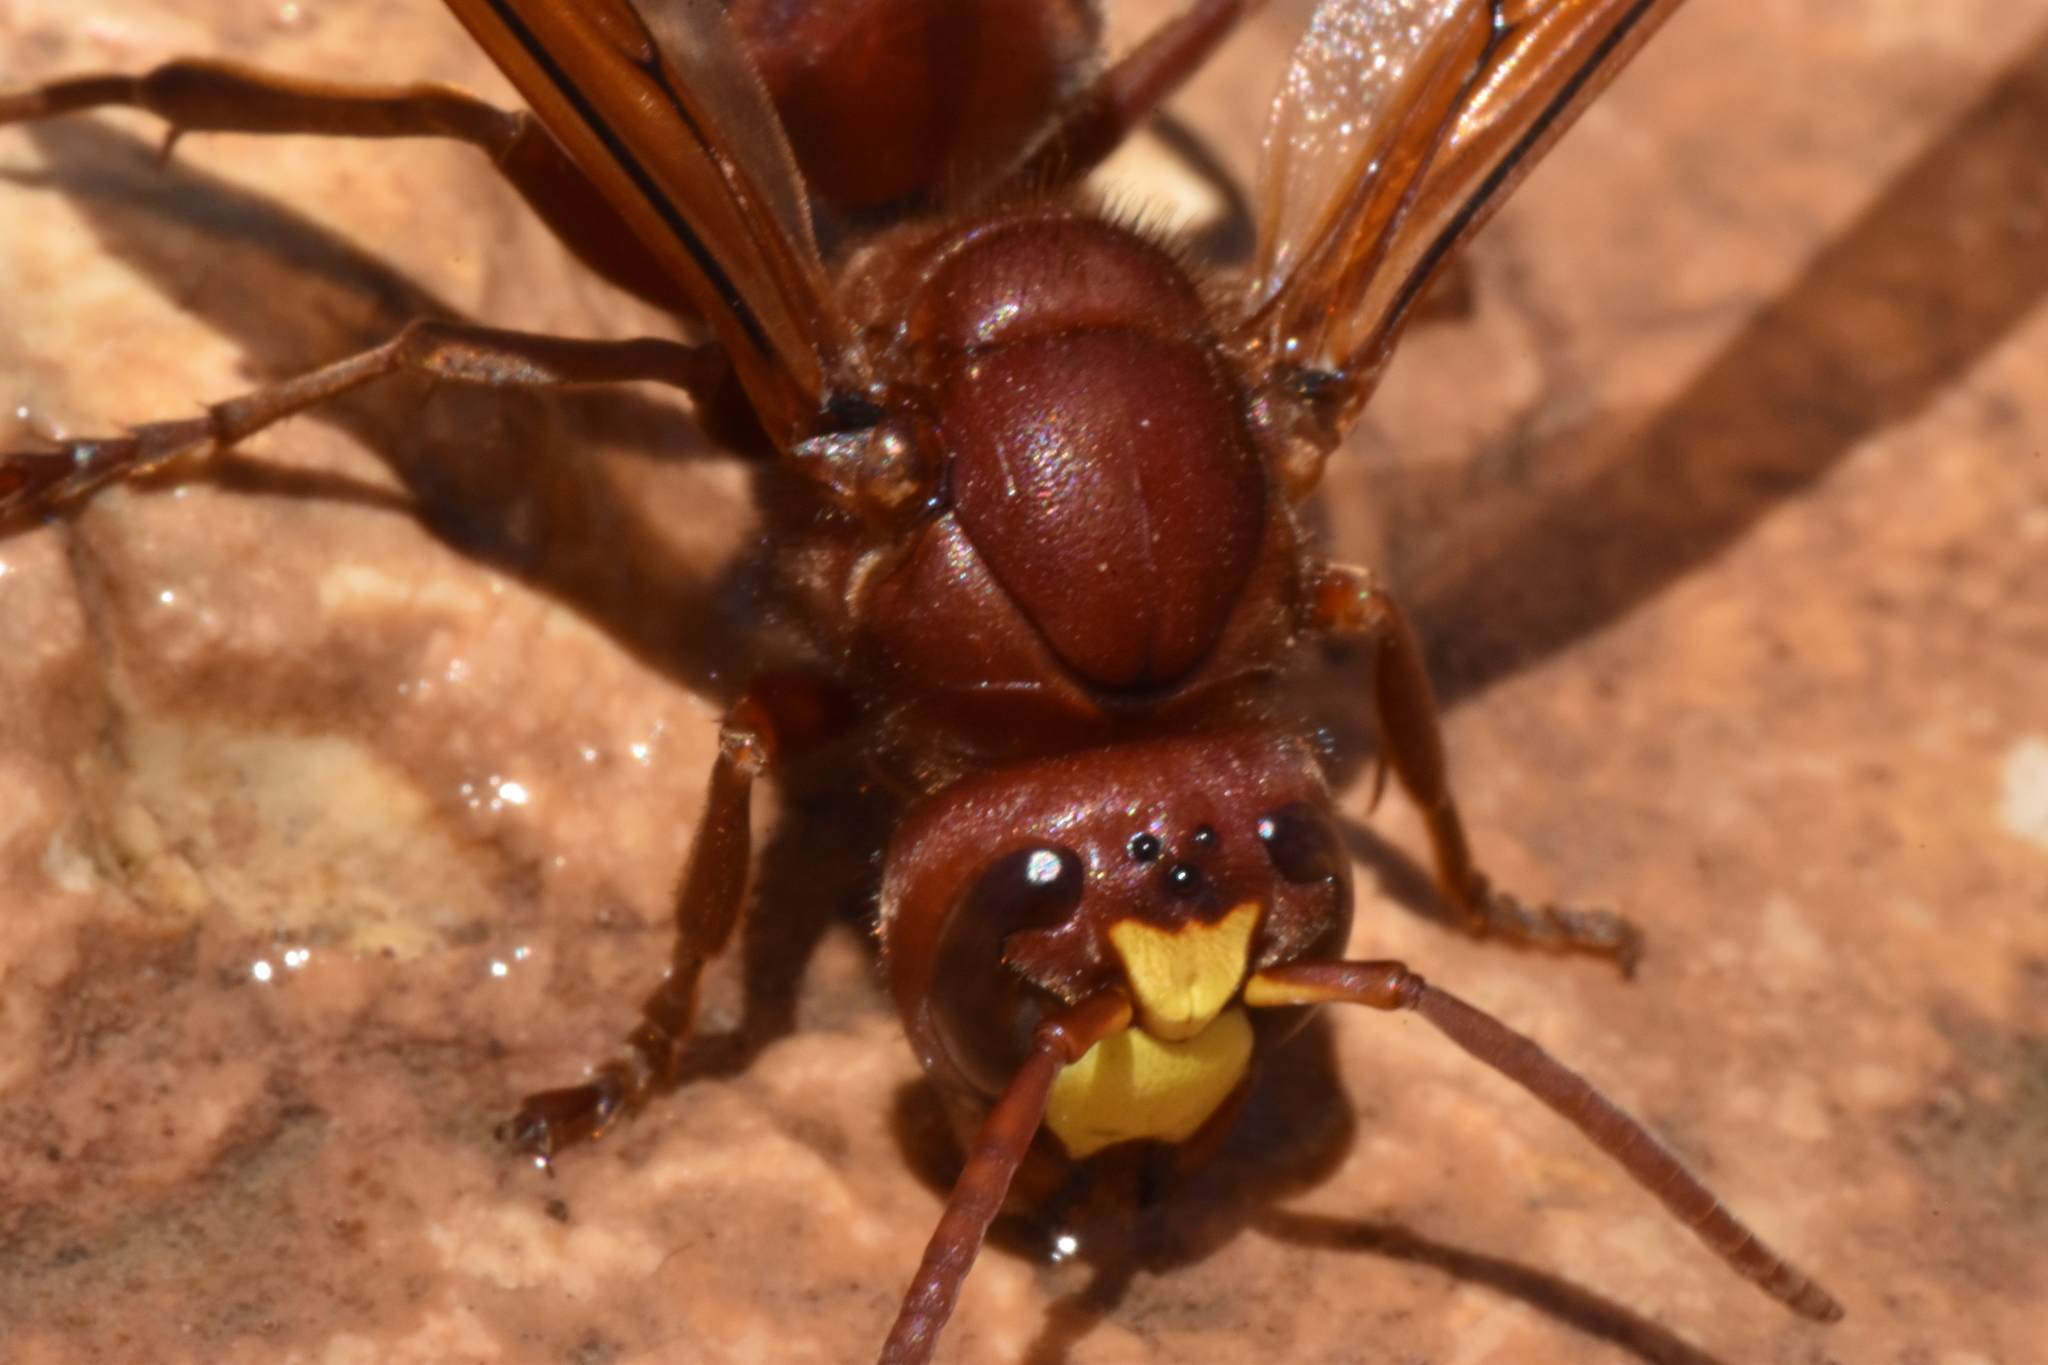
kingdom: Animalia
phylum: Arthropoda
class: Insecta
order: Hymenoptera
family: Vespidae
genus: Vespa
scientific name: Vespa orientalis
